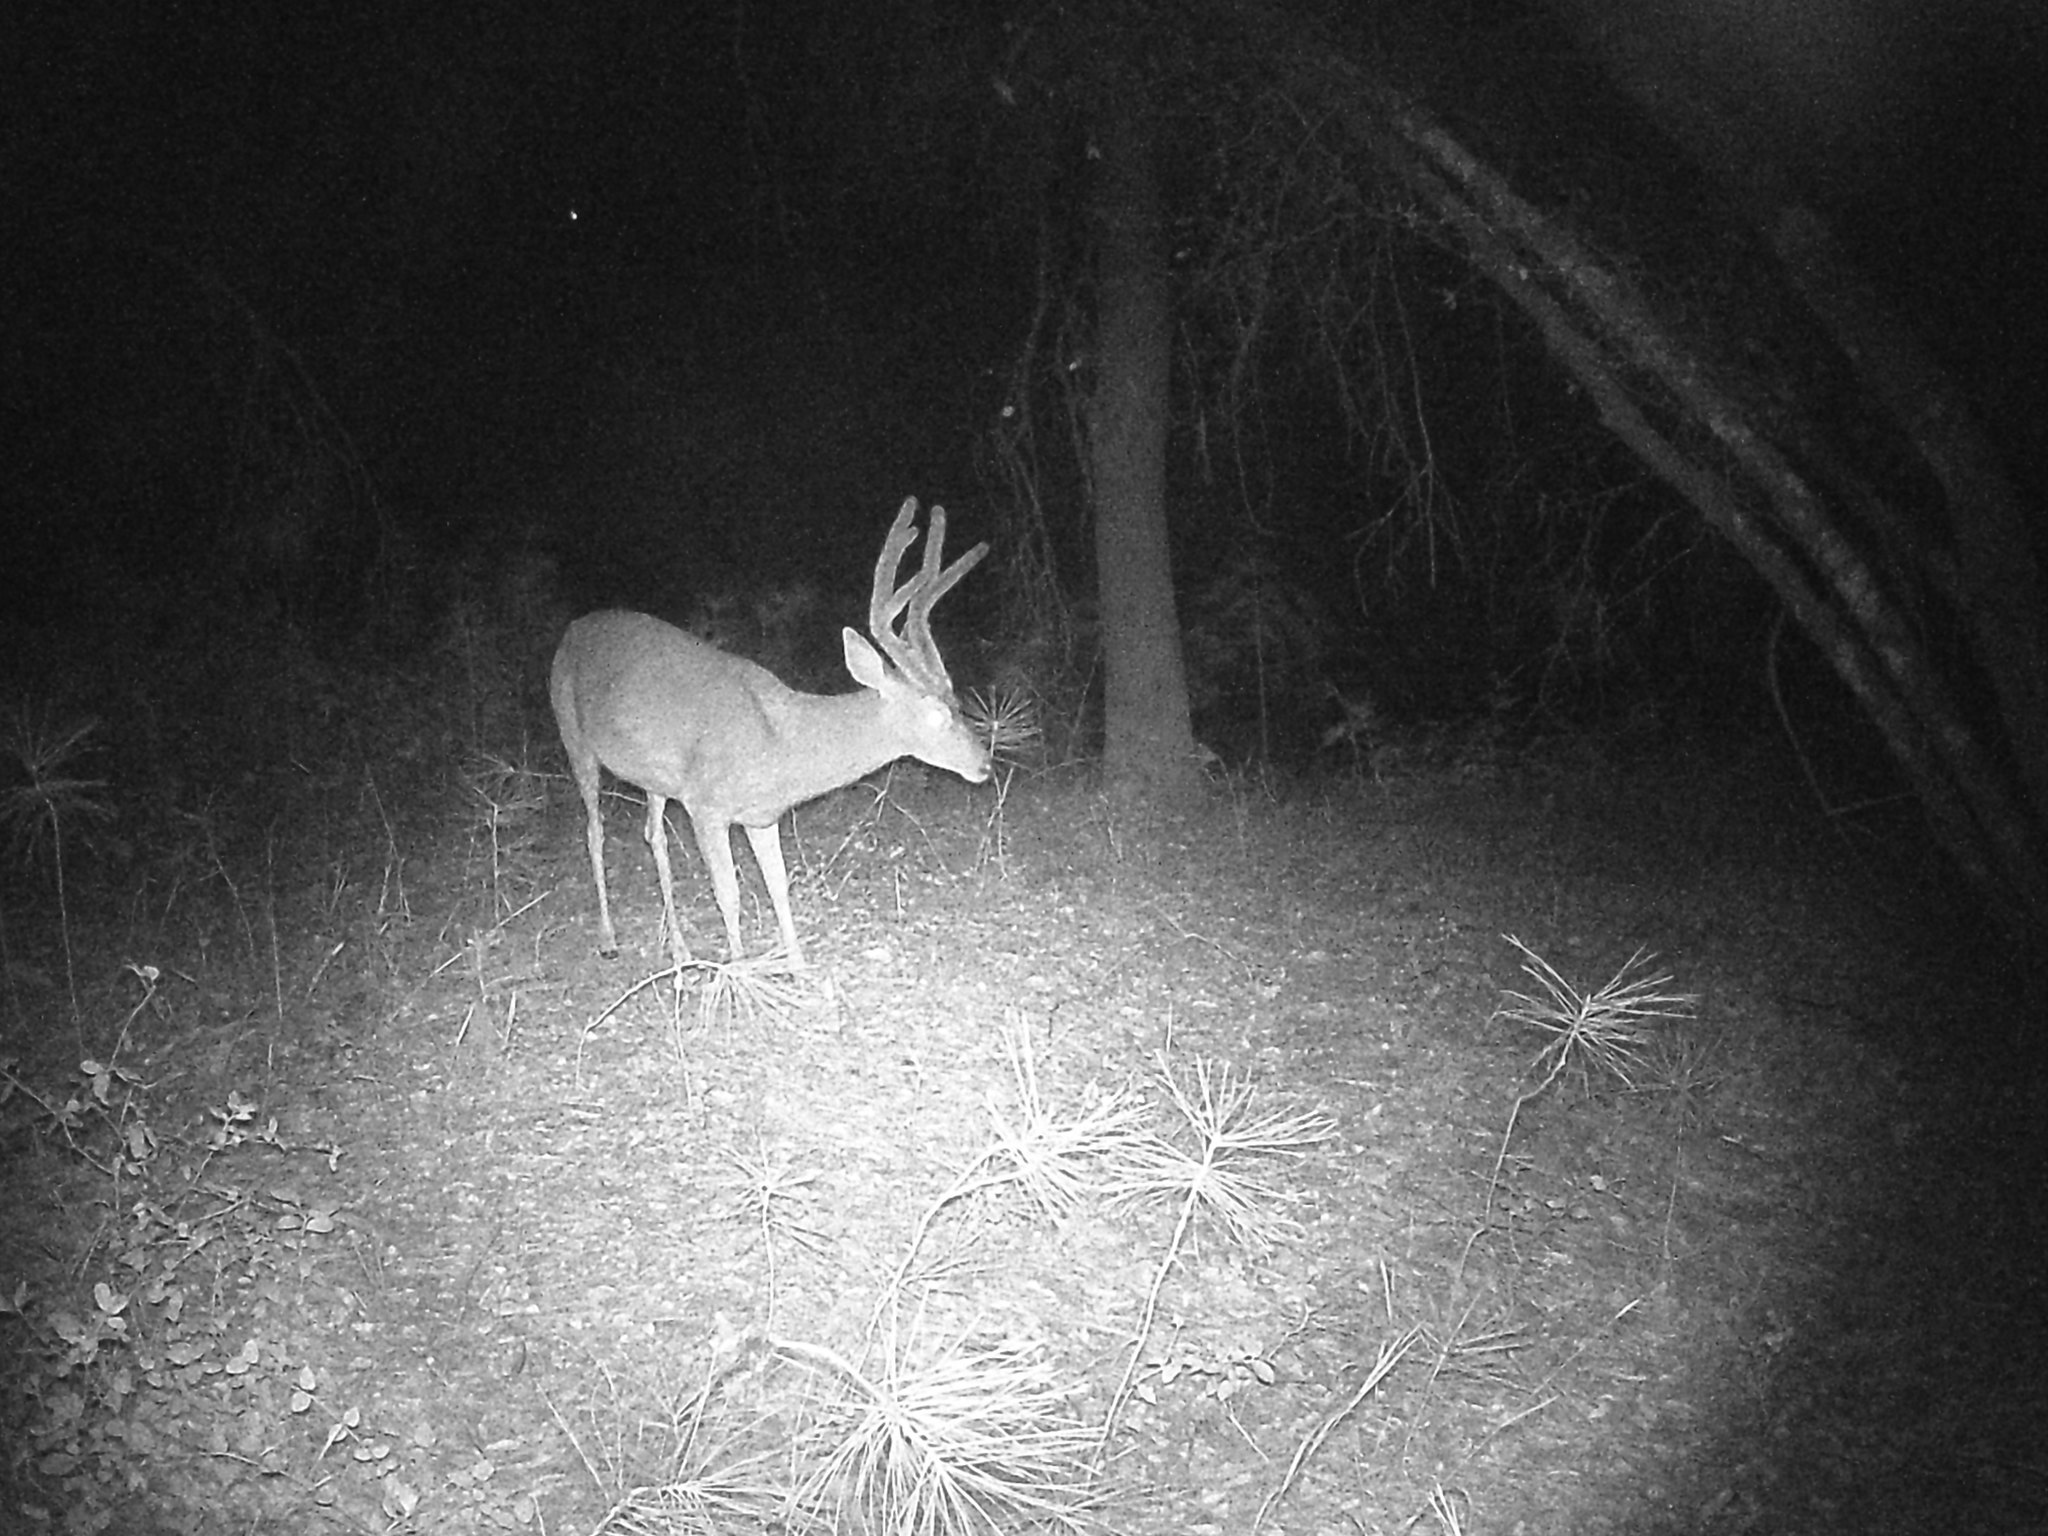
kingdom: Animalia
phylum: Chordata
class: Mammalia
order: Artiodactyla
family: Cervidae
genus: Odocoileus
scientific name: Odocoileus hemionus
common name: Mule deer
